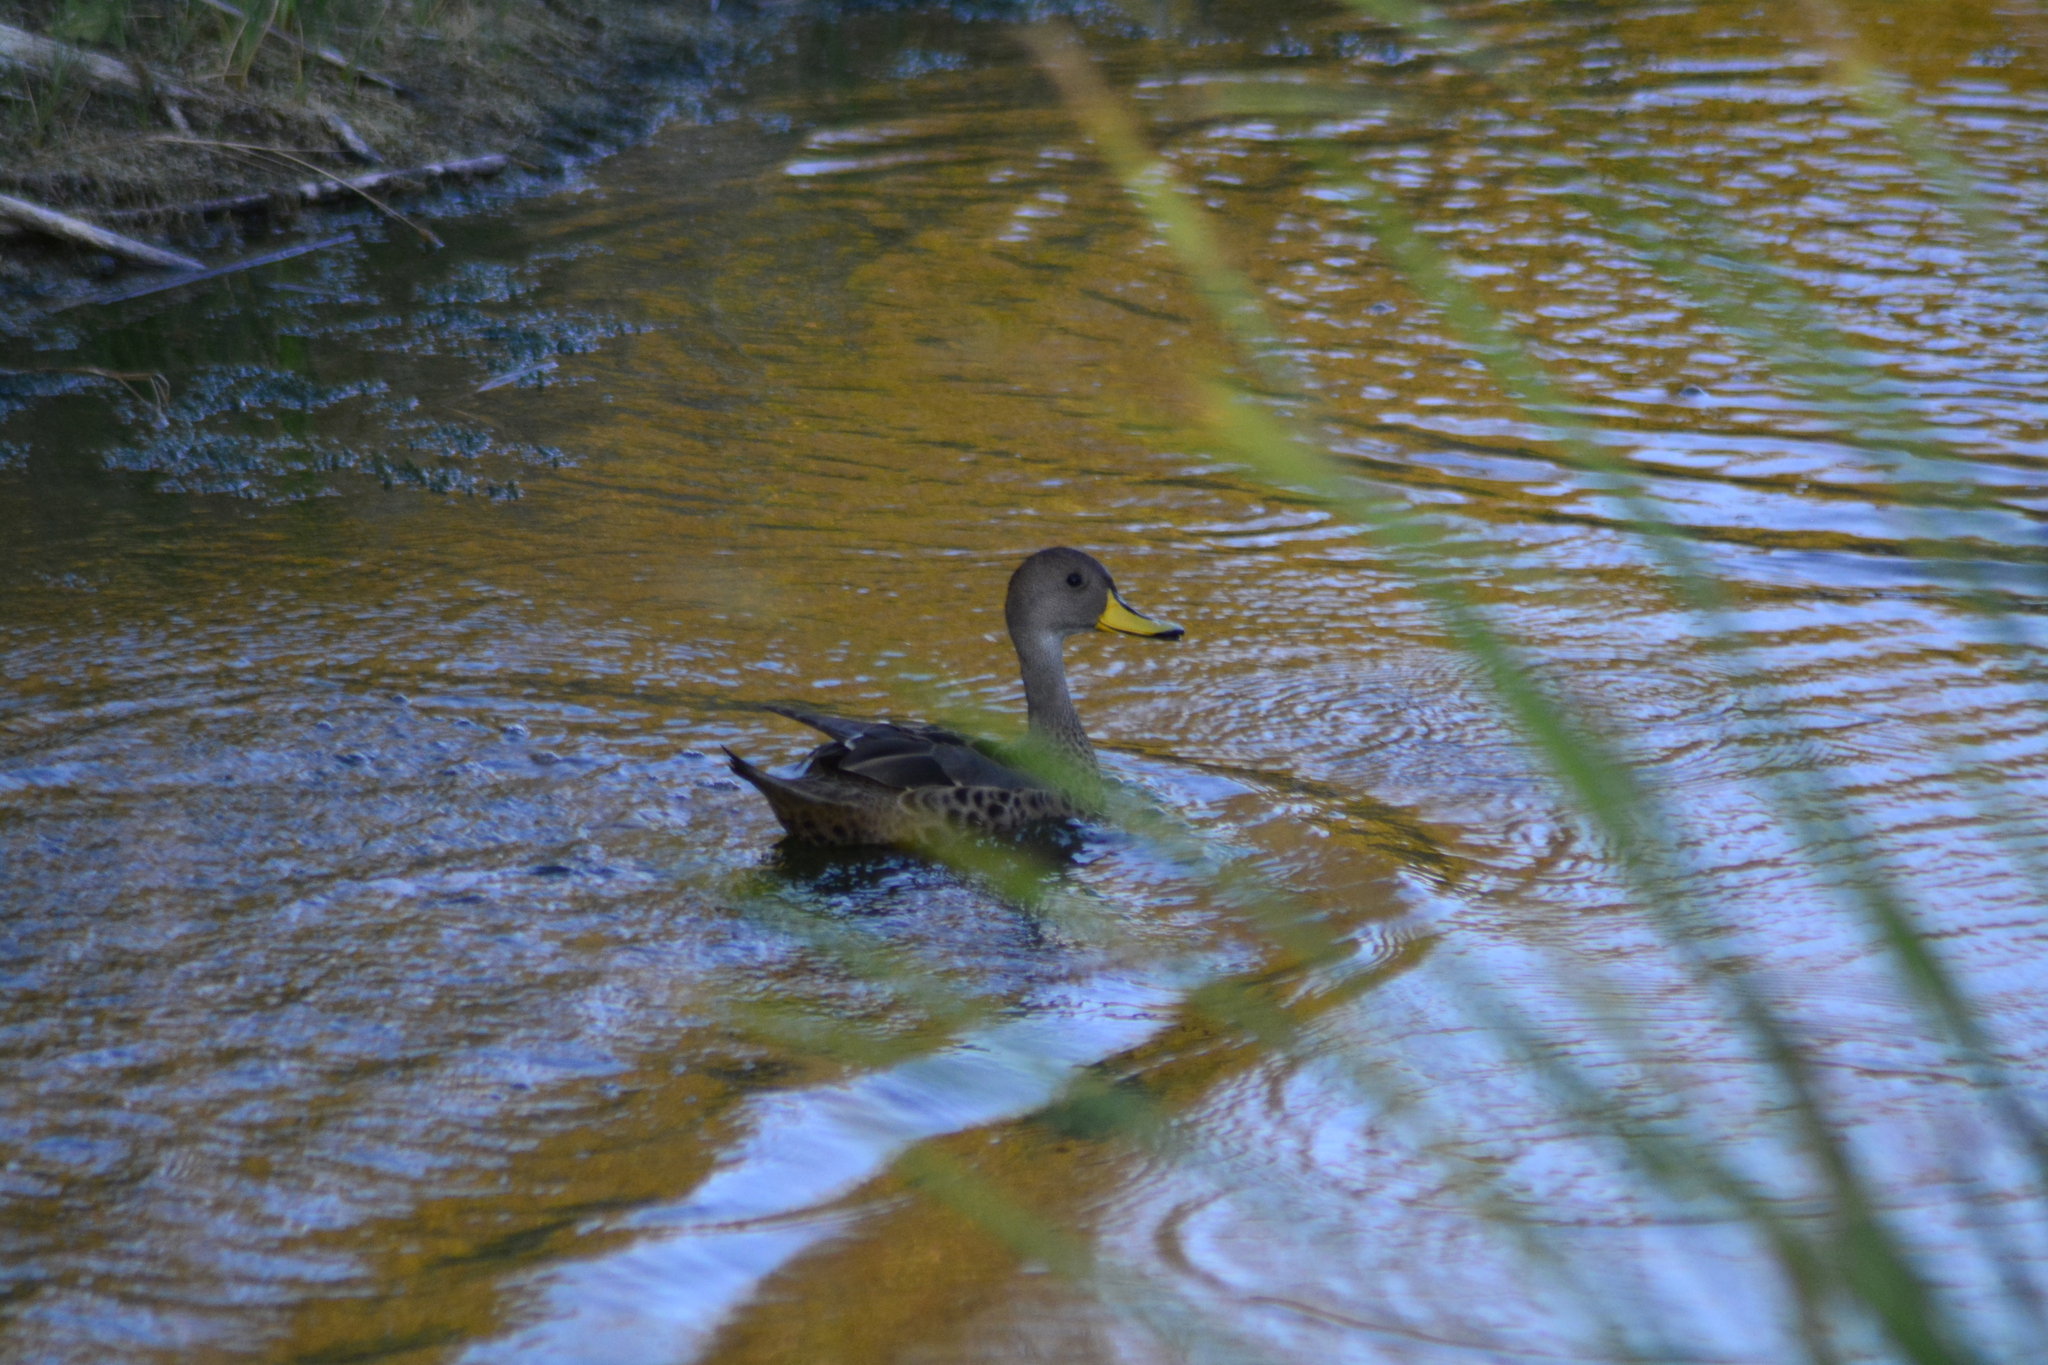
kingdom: Animalia
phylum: Chordata
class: Aves
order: Anseriformes
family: Anatidae
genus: Anas
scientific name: Anas georgica
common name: Yellow-billed pintail
